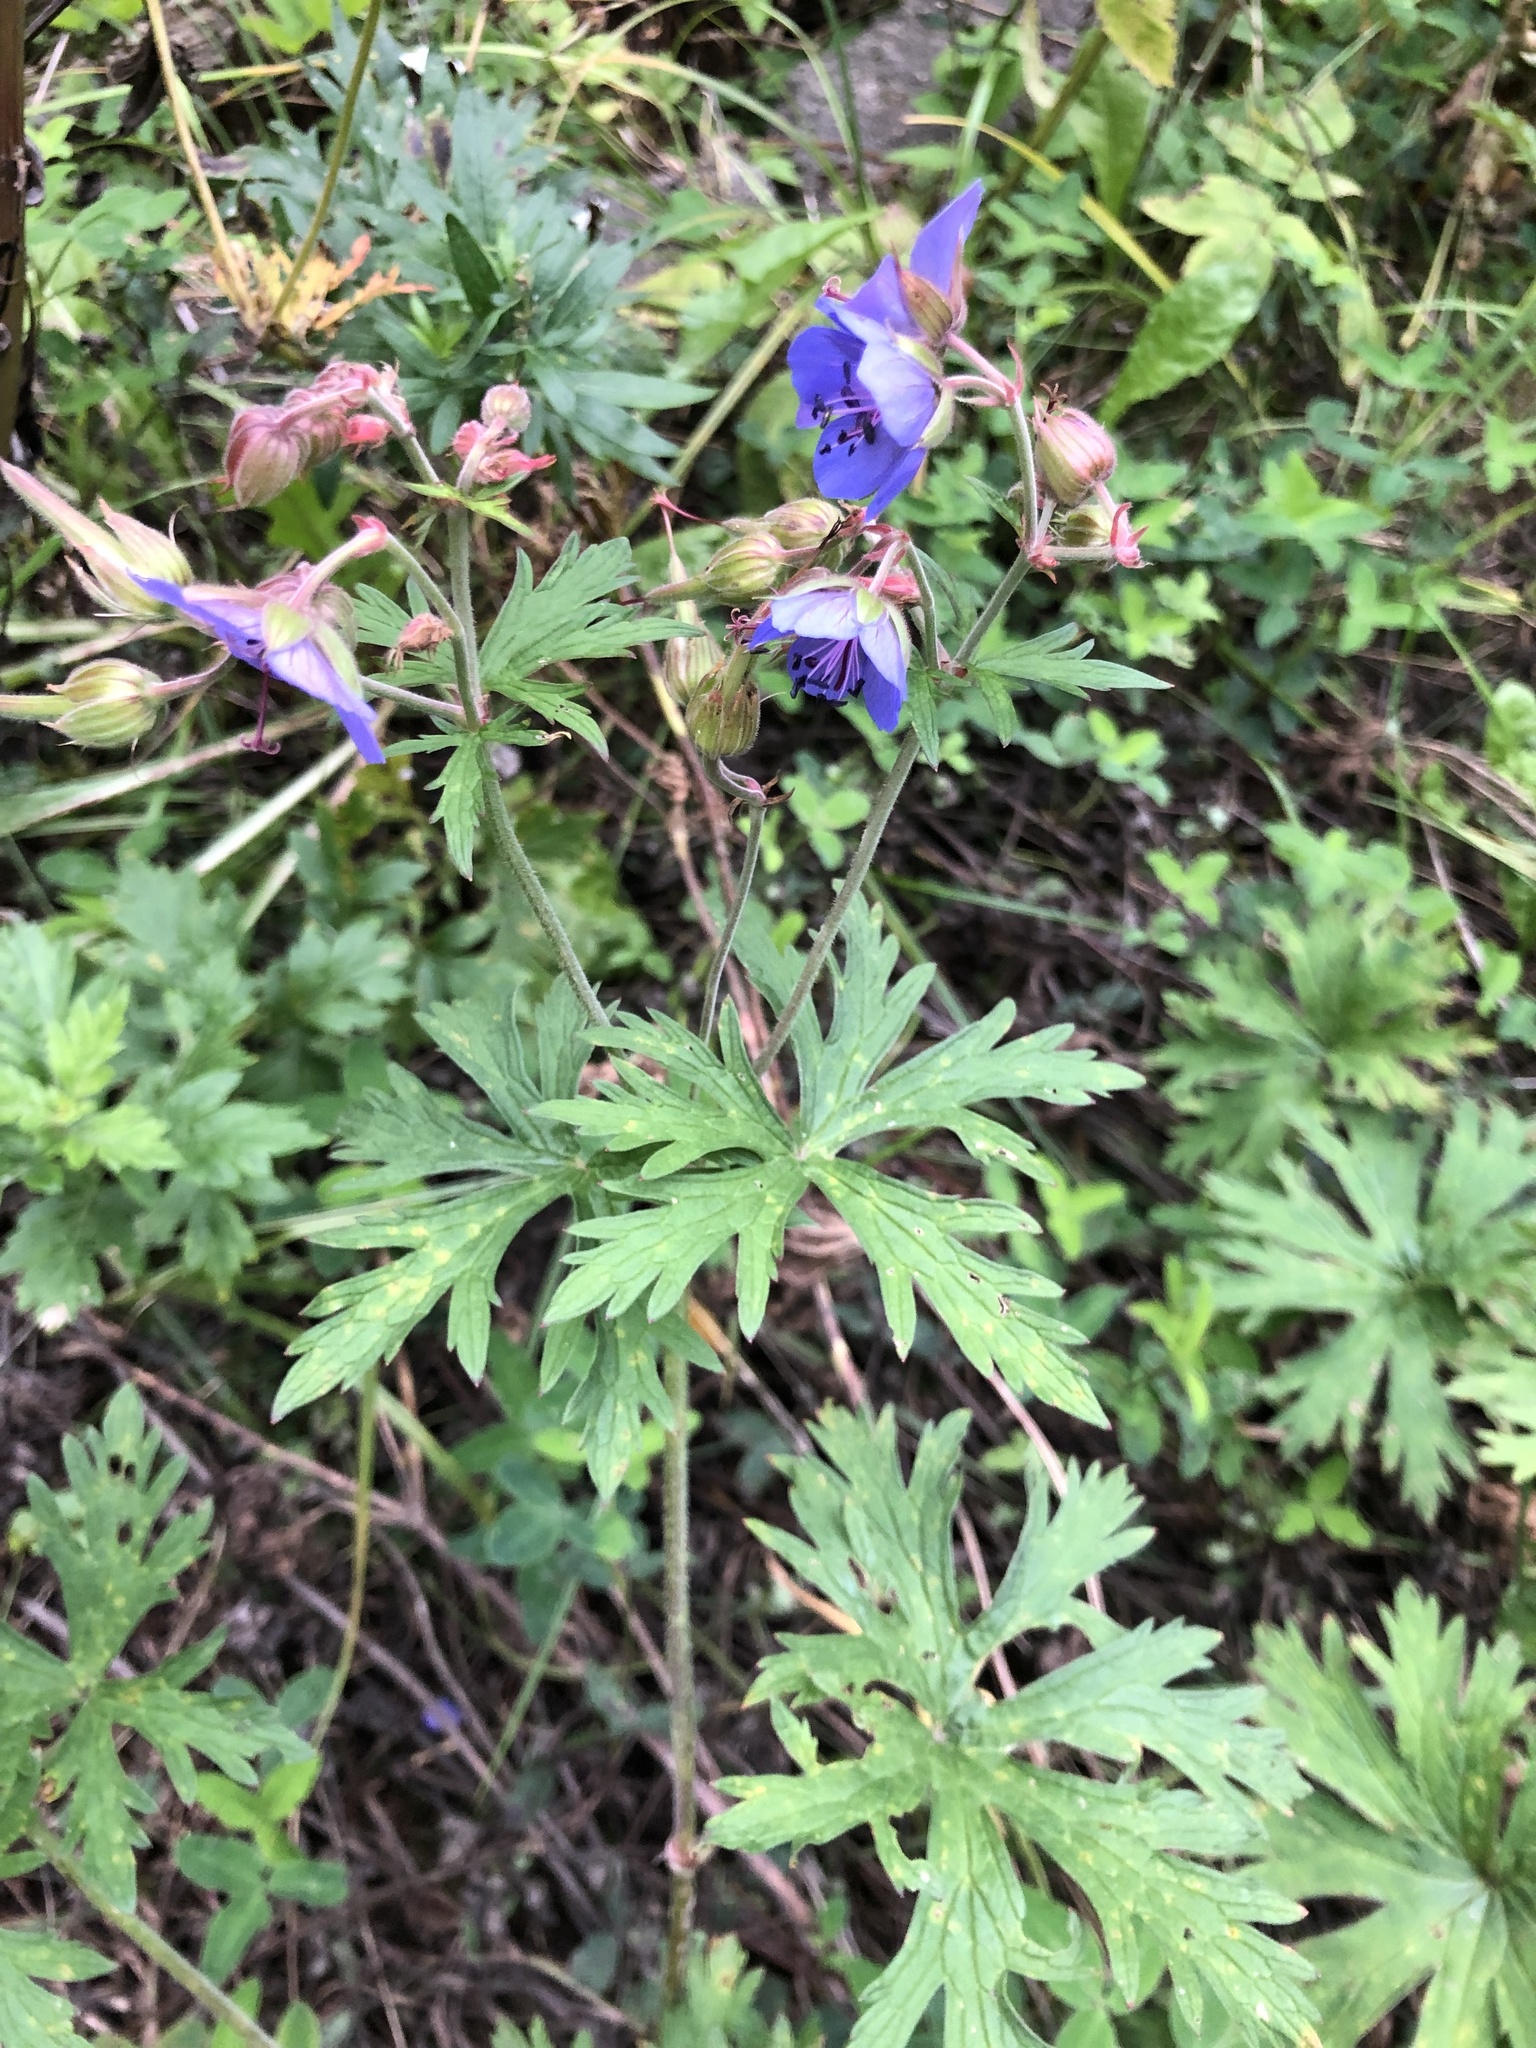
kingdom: Plantae
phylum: Tracheophyta
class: Magnoliopsida
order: Geraniales
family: Geraniaceae
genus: Geranium
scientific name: Geranium pratense
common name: Meadow crane's-bill
